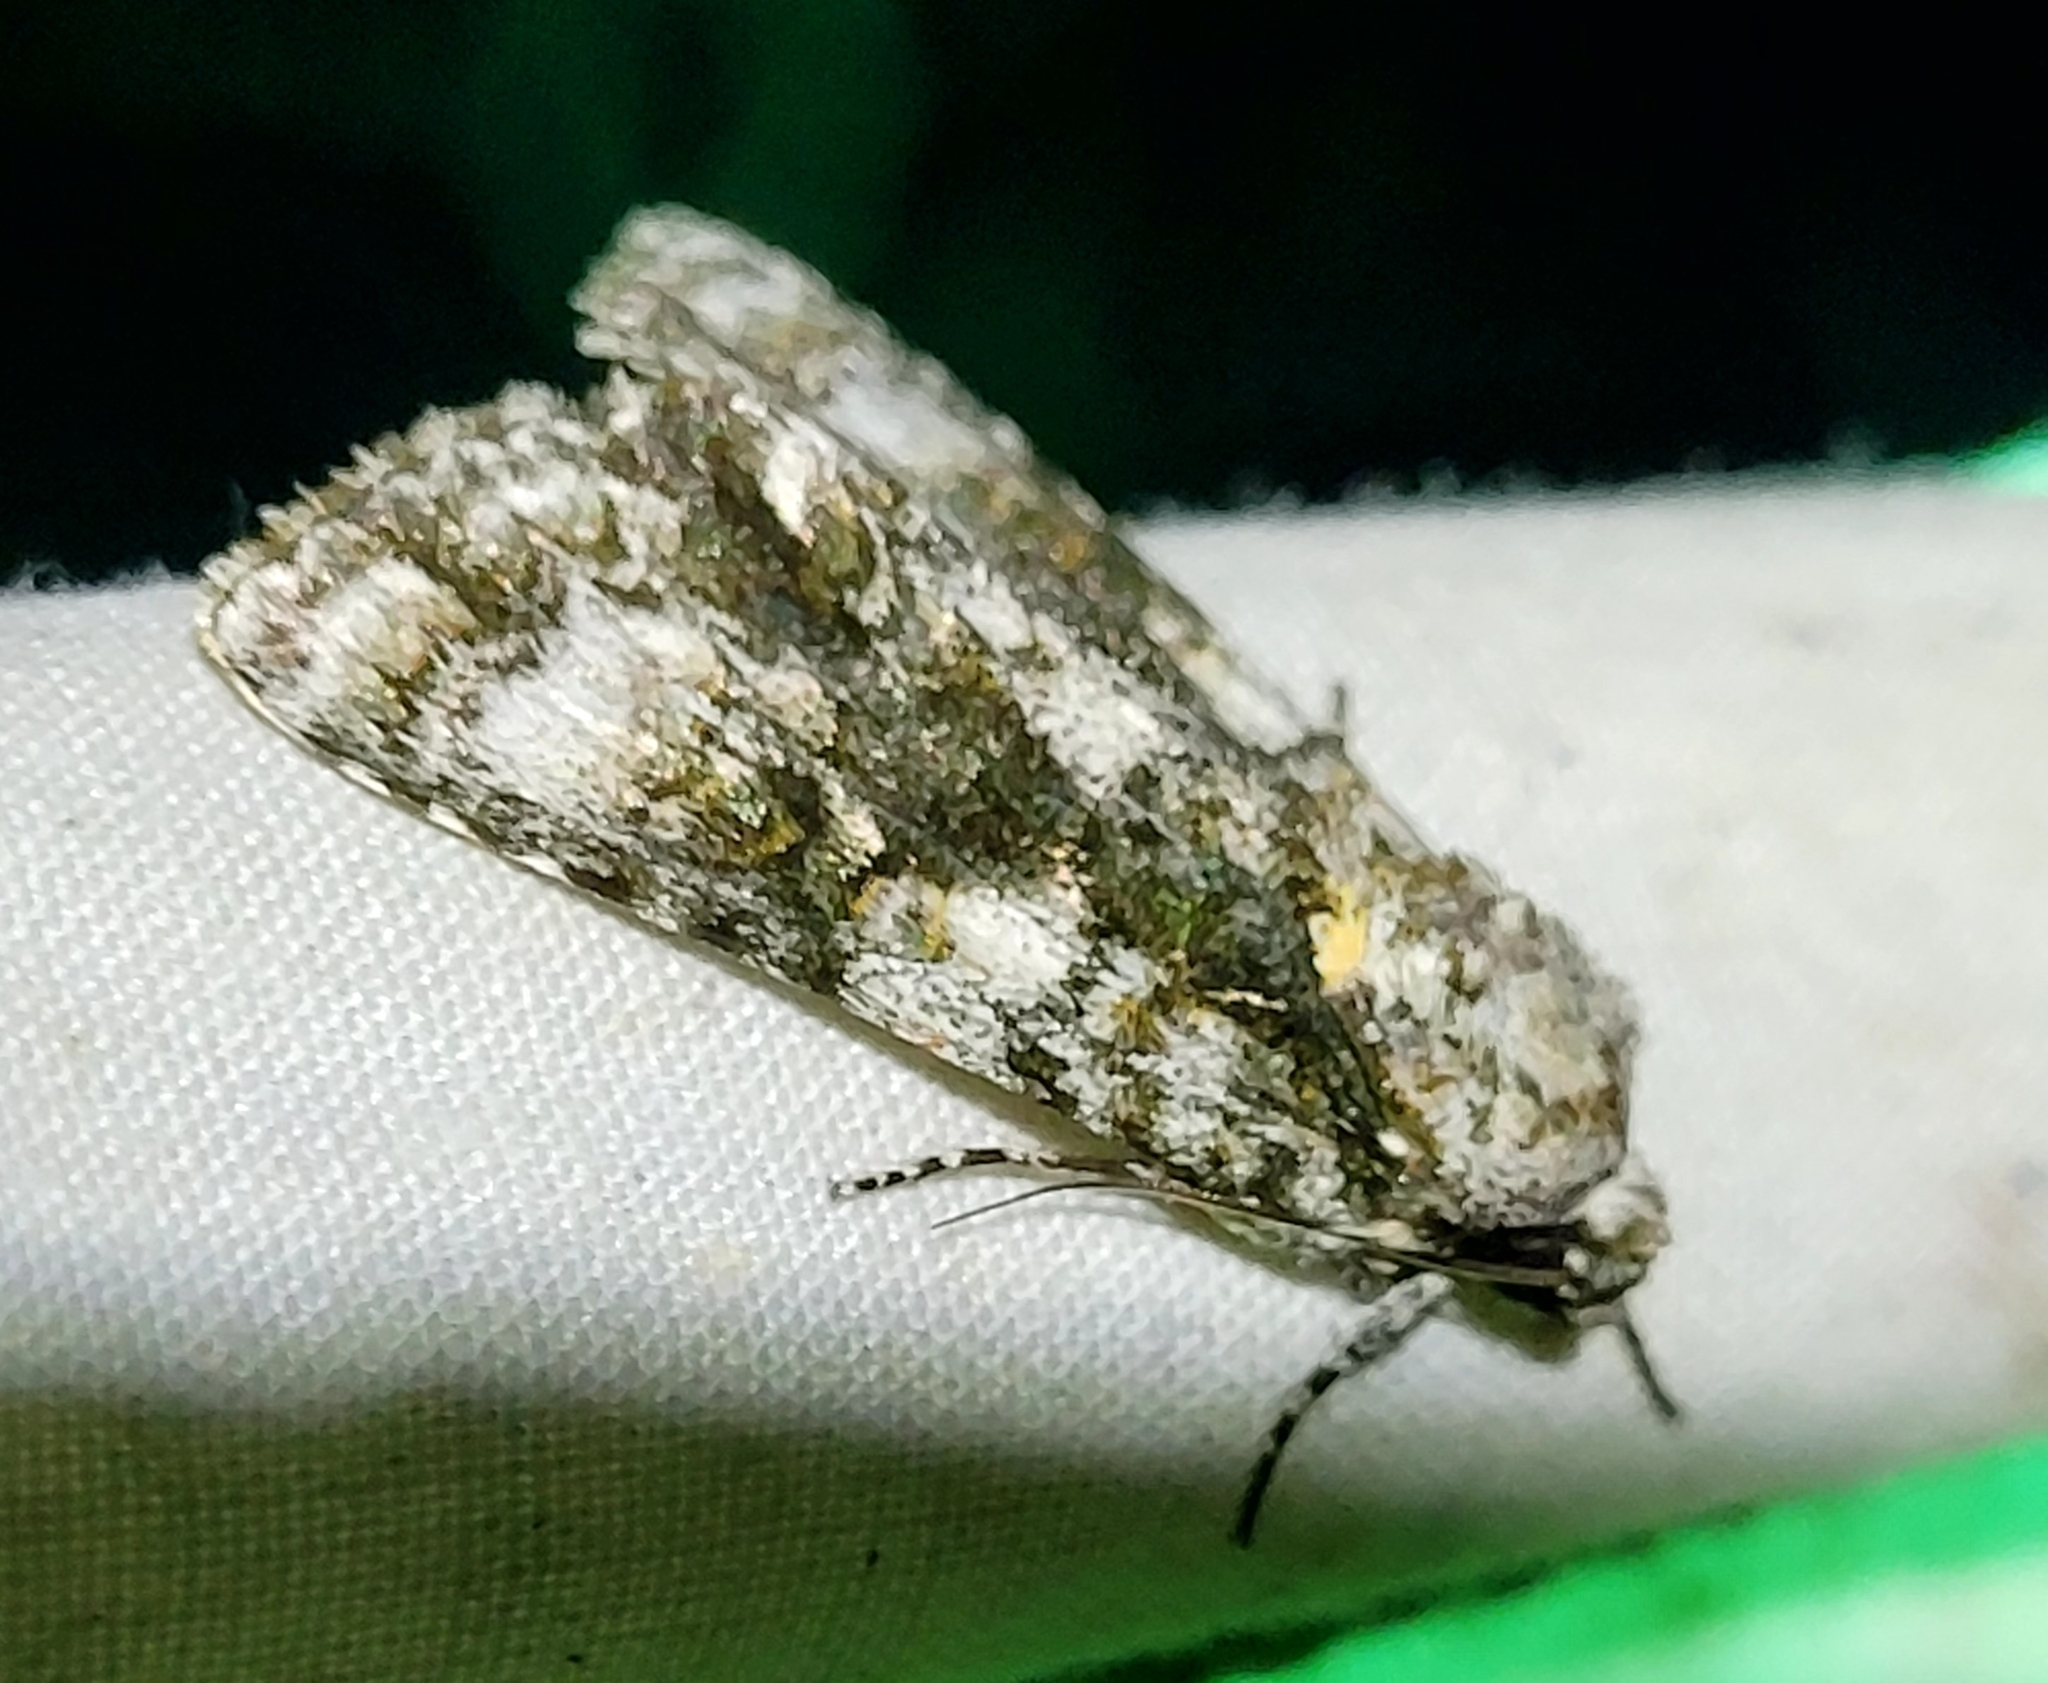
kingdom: Animalia
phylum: Arthropoda
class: Insecta
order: Lepidoptera
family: Noctuidae
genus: Acronicta
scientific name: Acronicta superans
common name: Splendid dagger
